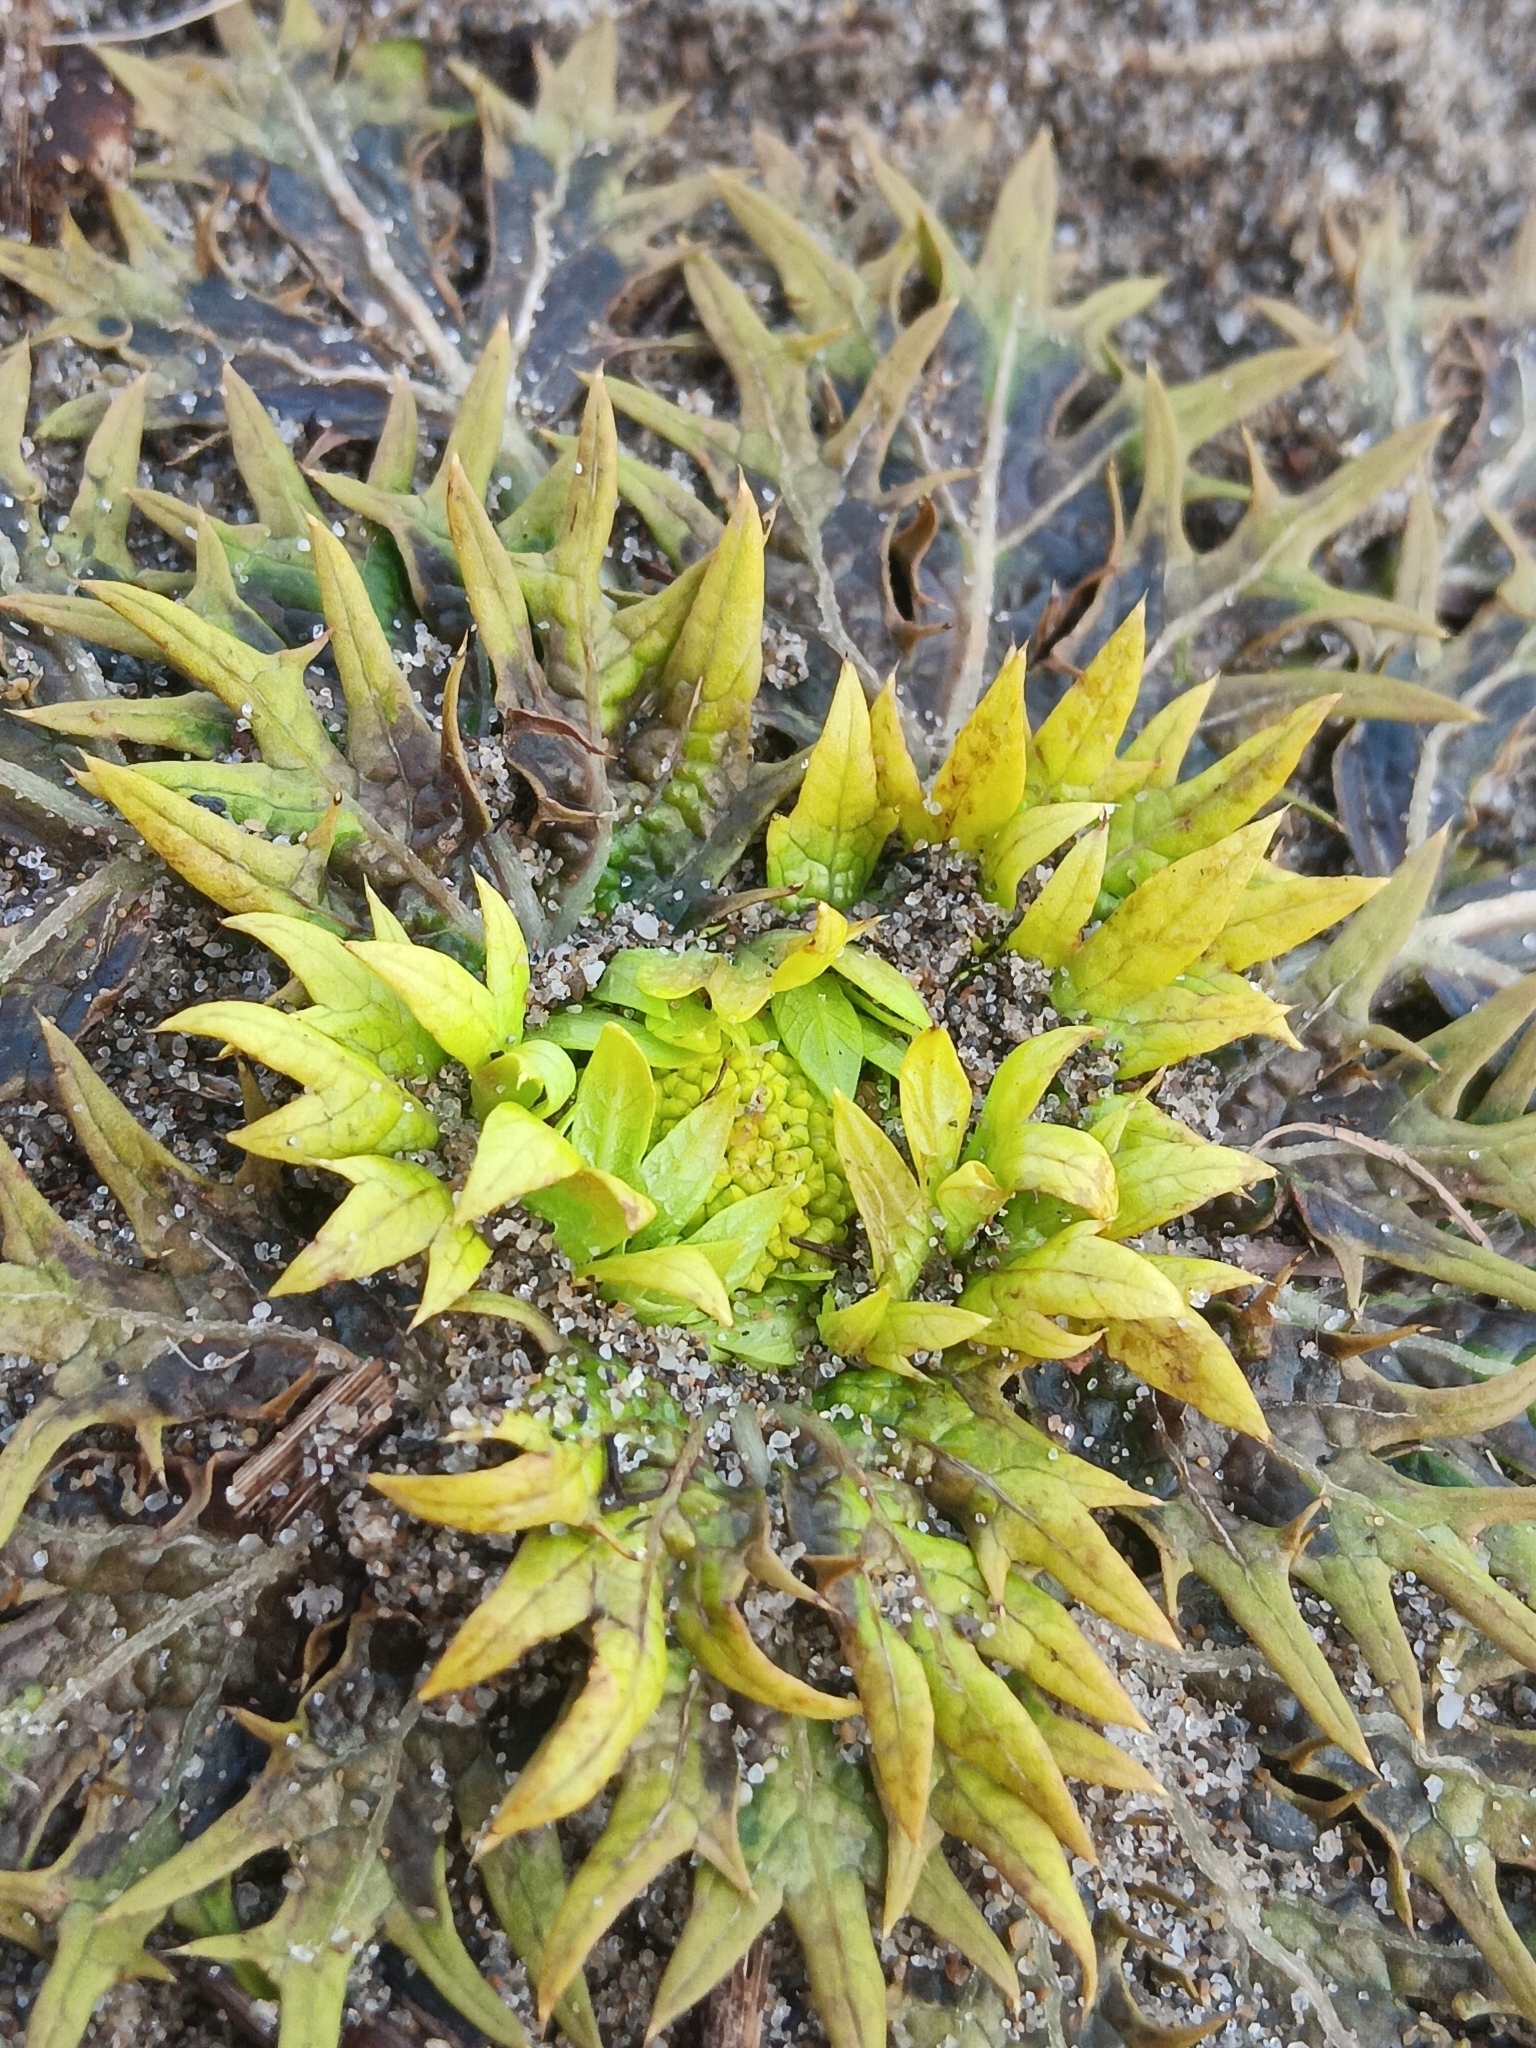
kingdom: Plantae
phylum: Tracheophyta
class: Magnoliopsida
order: Apiales
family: Apiaceae
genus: Sanicula
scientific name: Sanicula arctopoides
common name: Footsteps-of-spring
